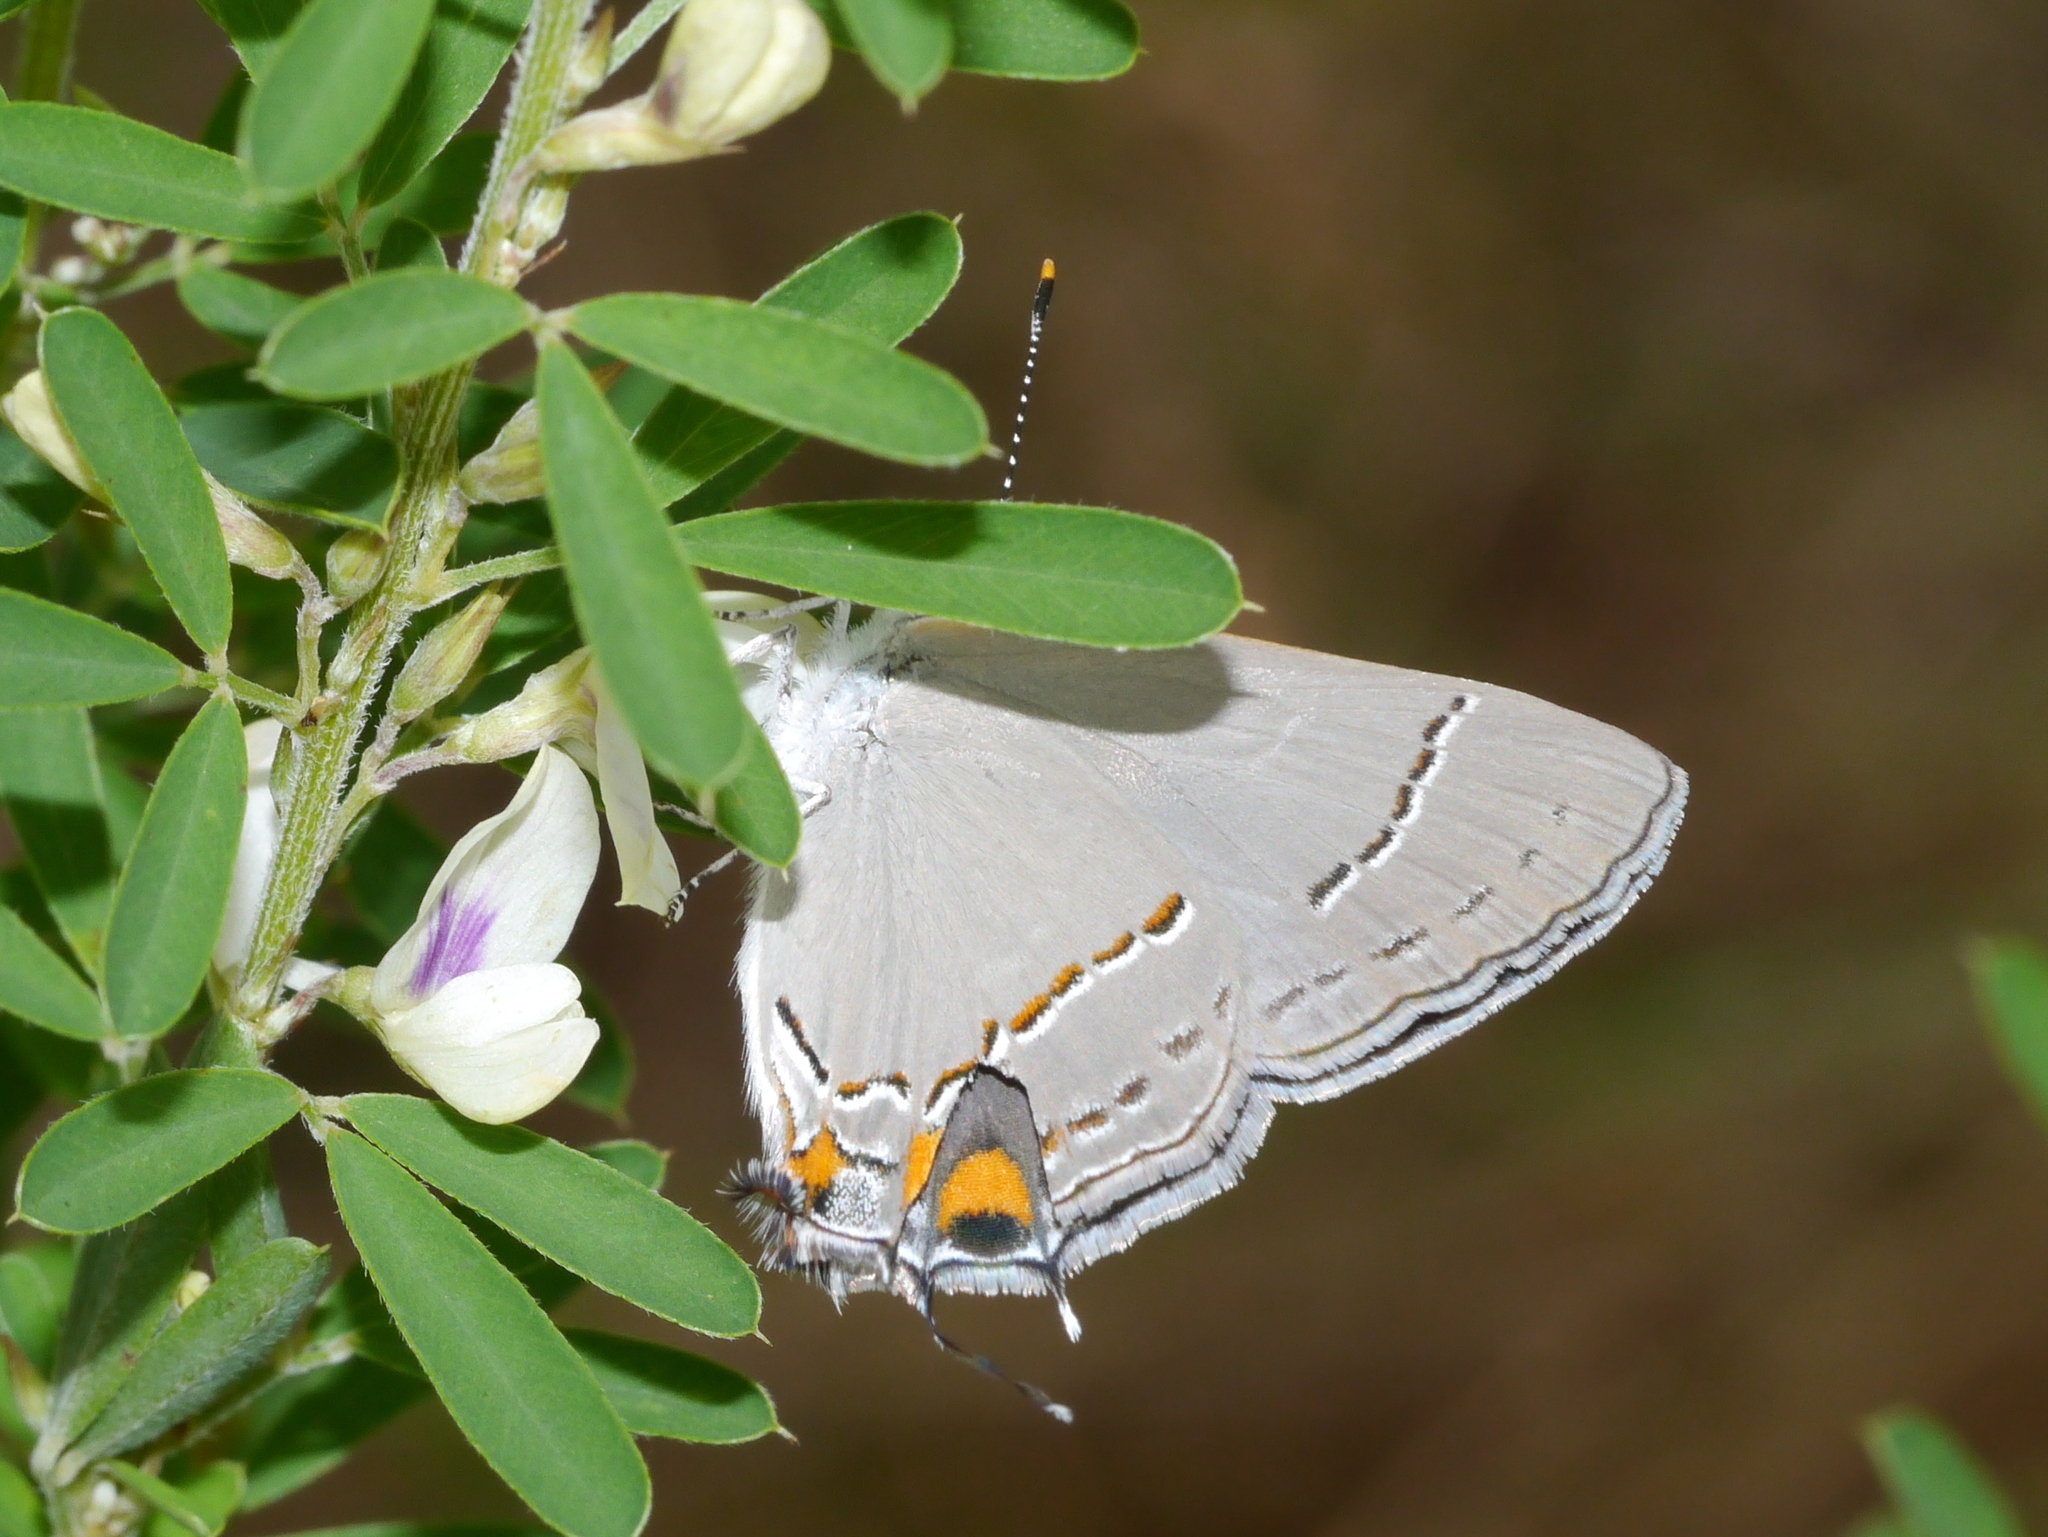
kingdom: Animalia
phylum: Arthropoda
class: Insecta
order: Lepidoptera
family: Lycaenidae
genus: Strymon
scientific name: Strymon melinus
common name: Gray hairstreak
